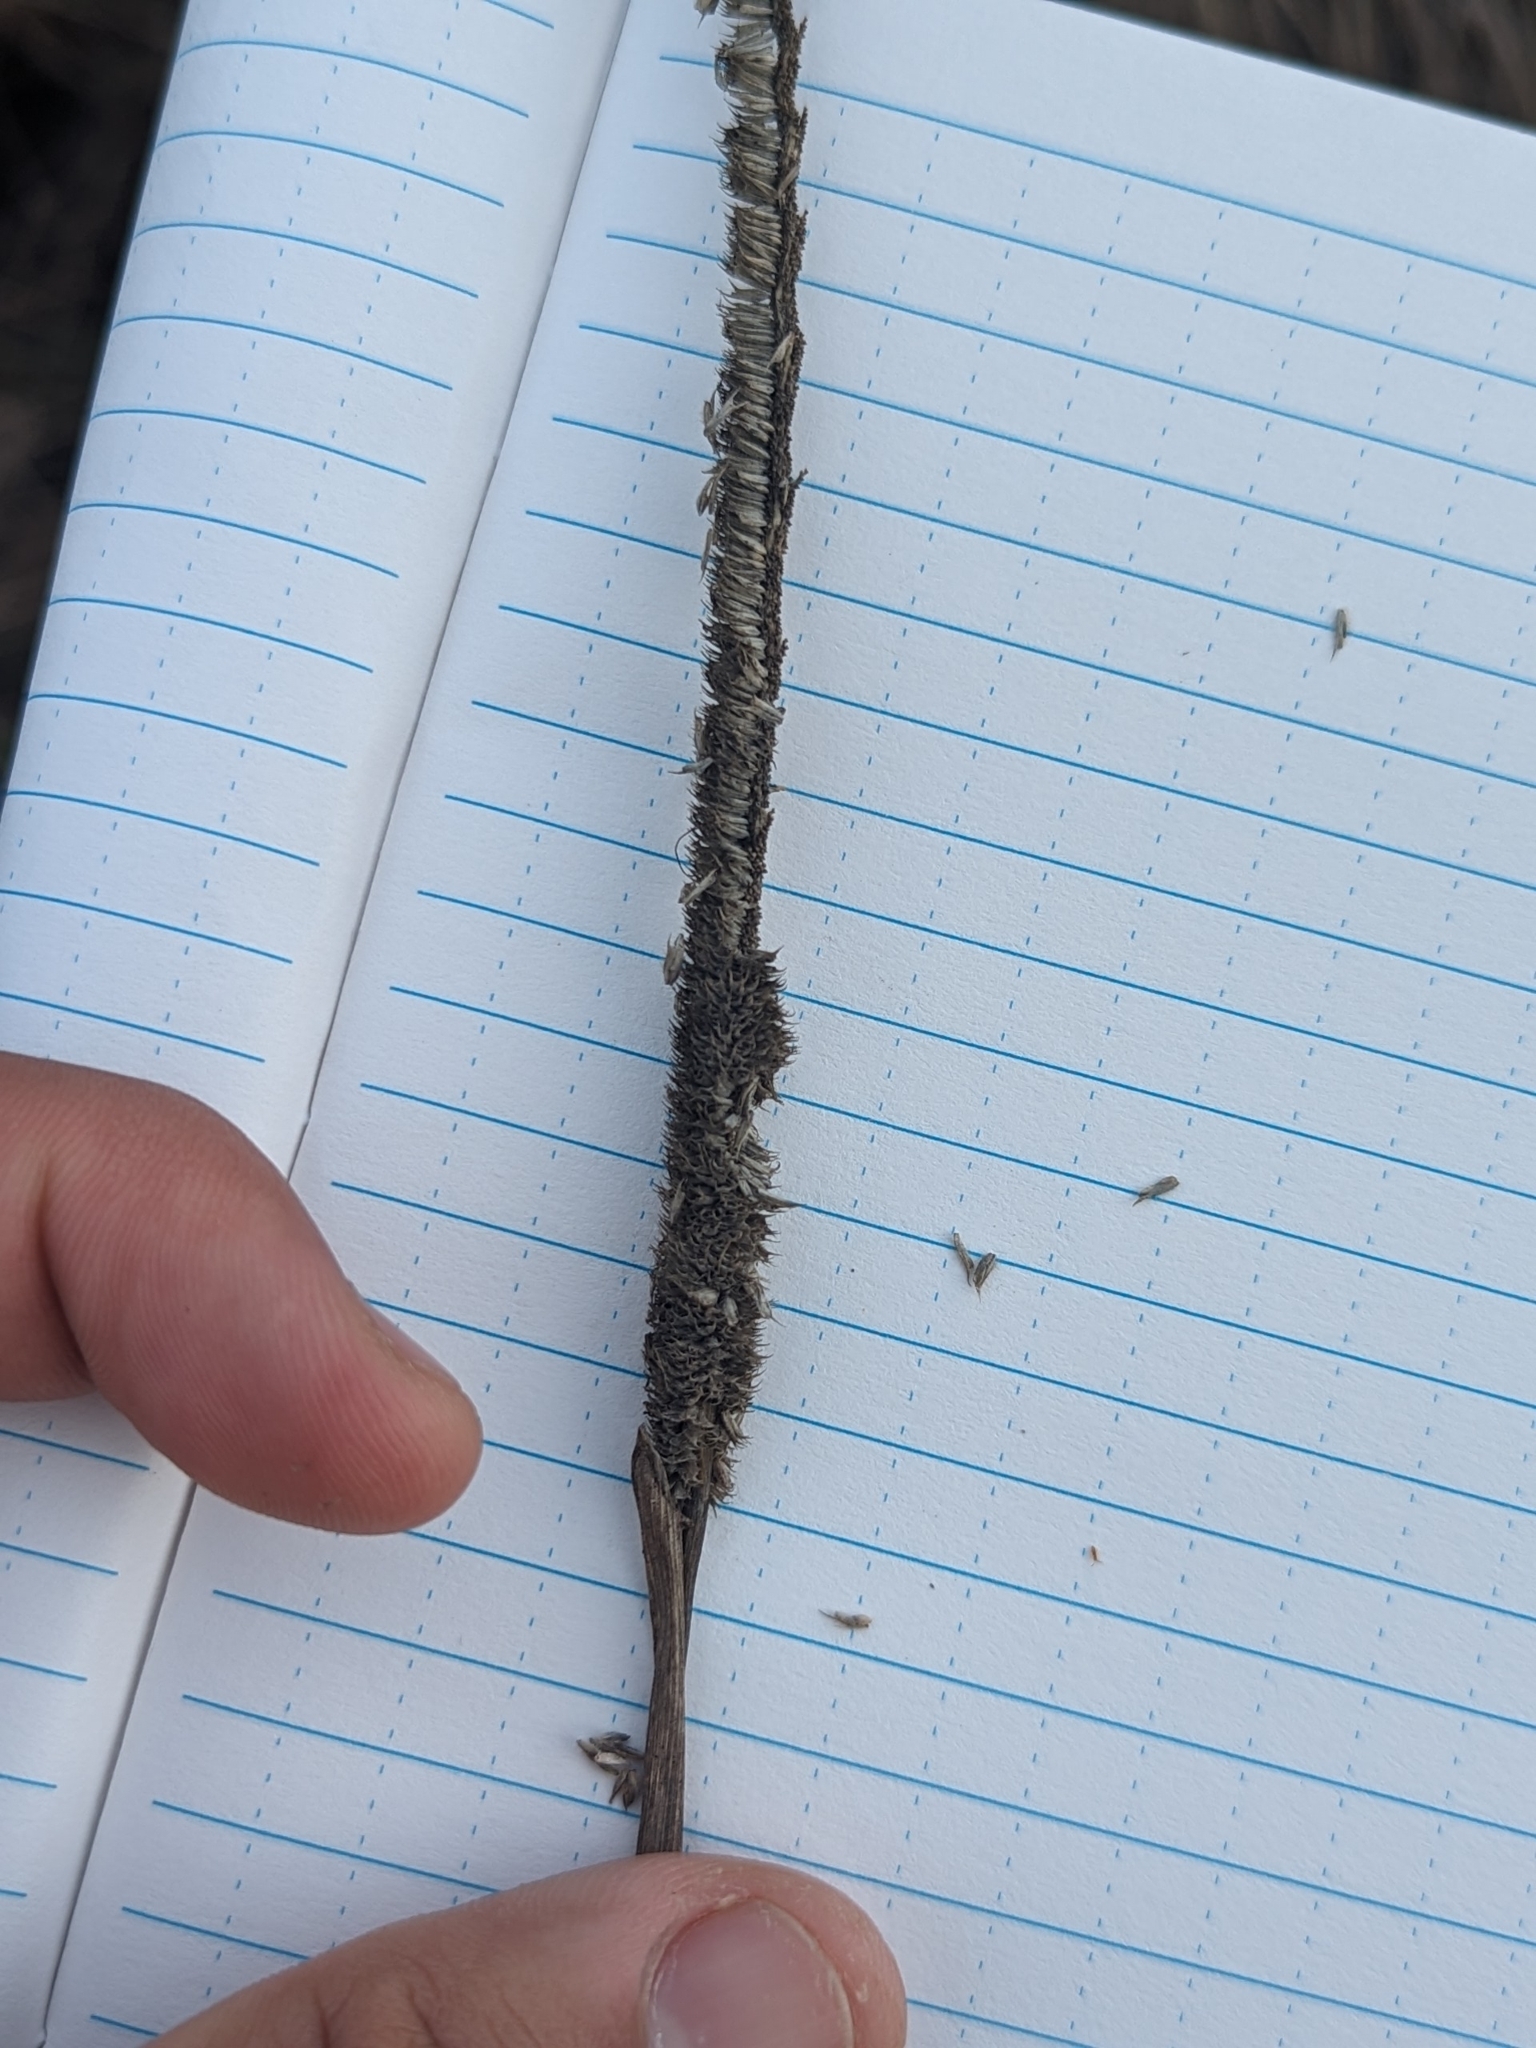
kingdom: Plantae
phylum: Tracheophyta
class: Liliopsida
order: Poales
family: Poaceae
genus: Phleum
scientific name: Phleum pratense
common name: Timothy grass
